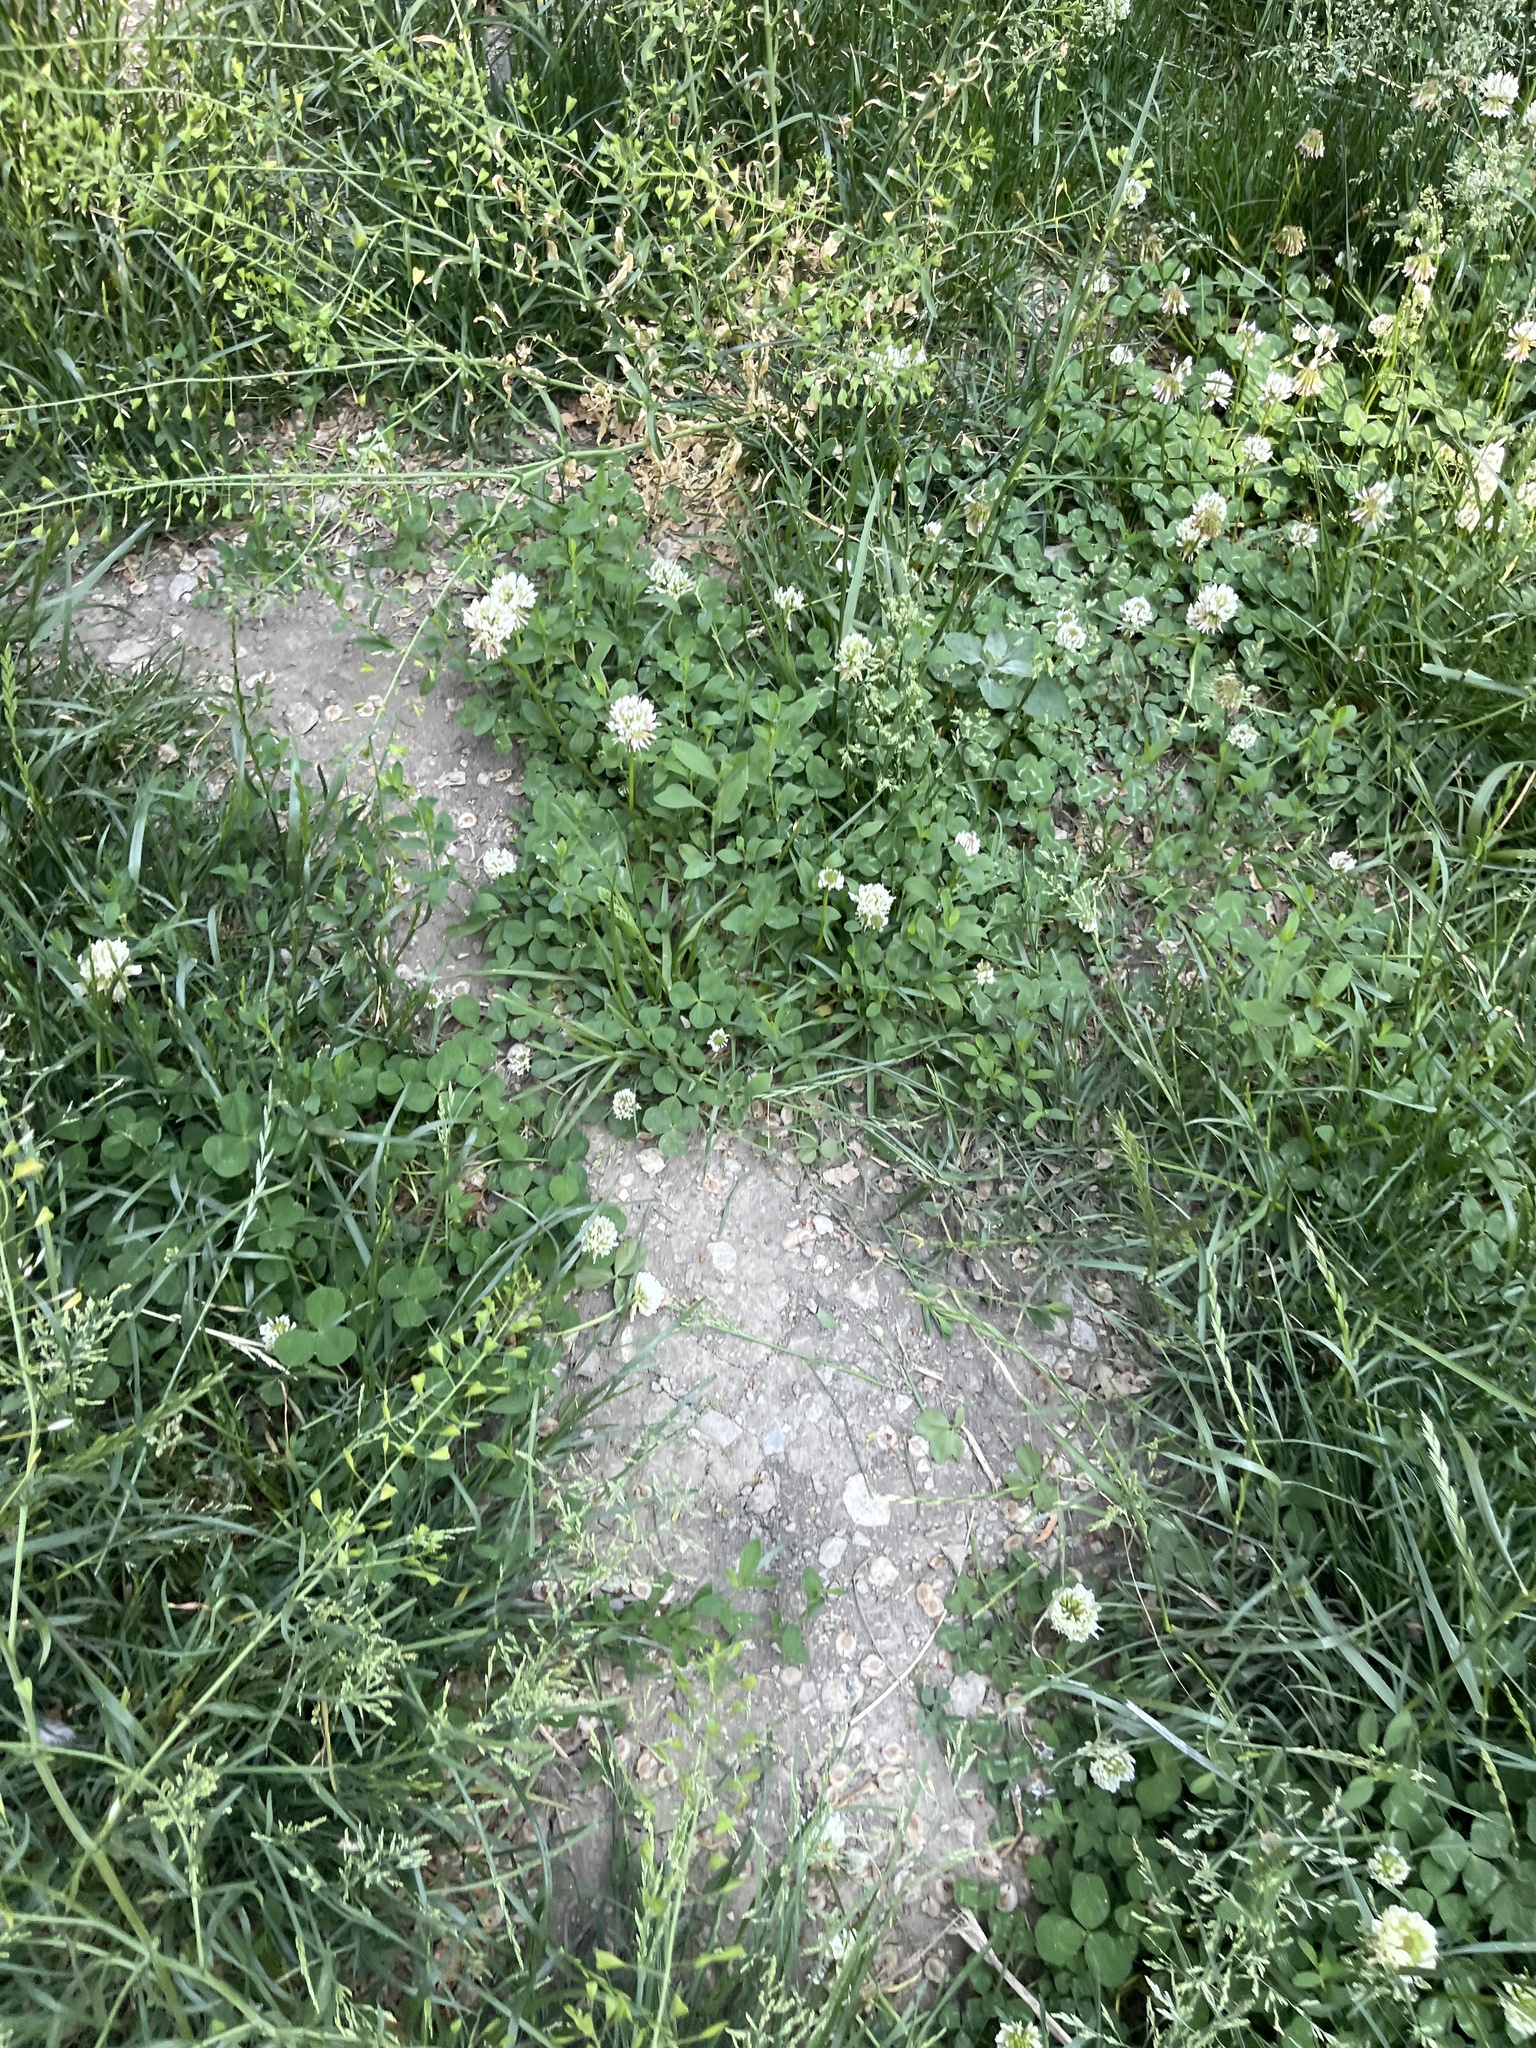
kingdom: Plantae
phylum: Tracheophyta
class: Magnoliopsida
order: Fabales
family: Fabaceae
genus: Trifolium
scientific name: Trifolium repens
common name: White clover
